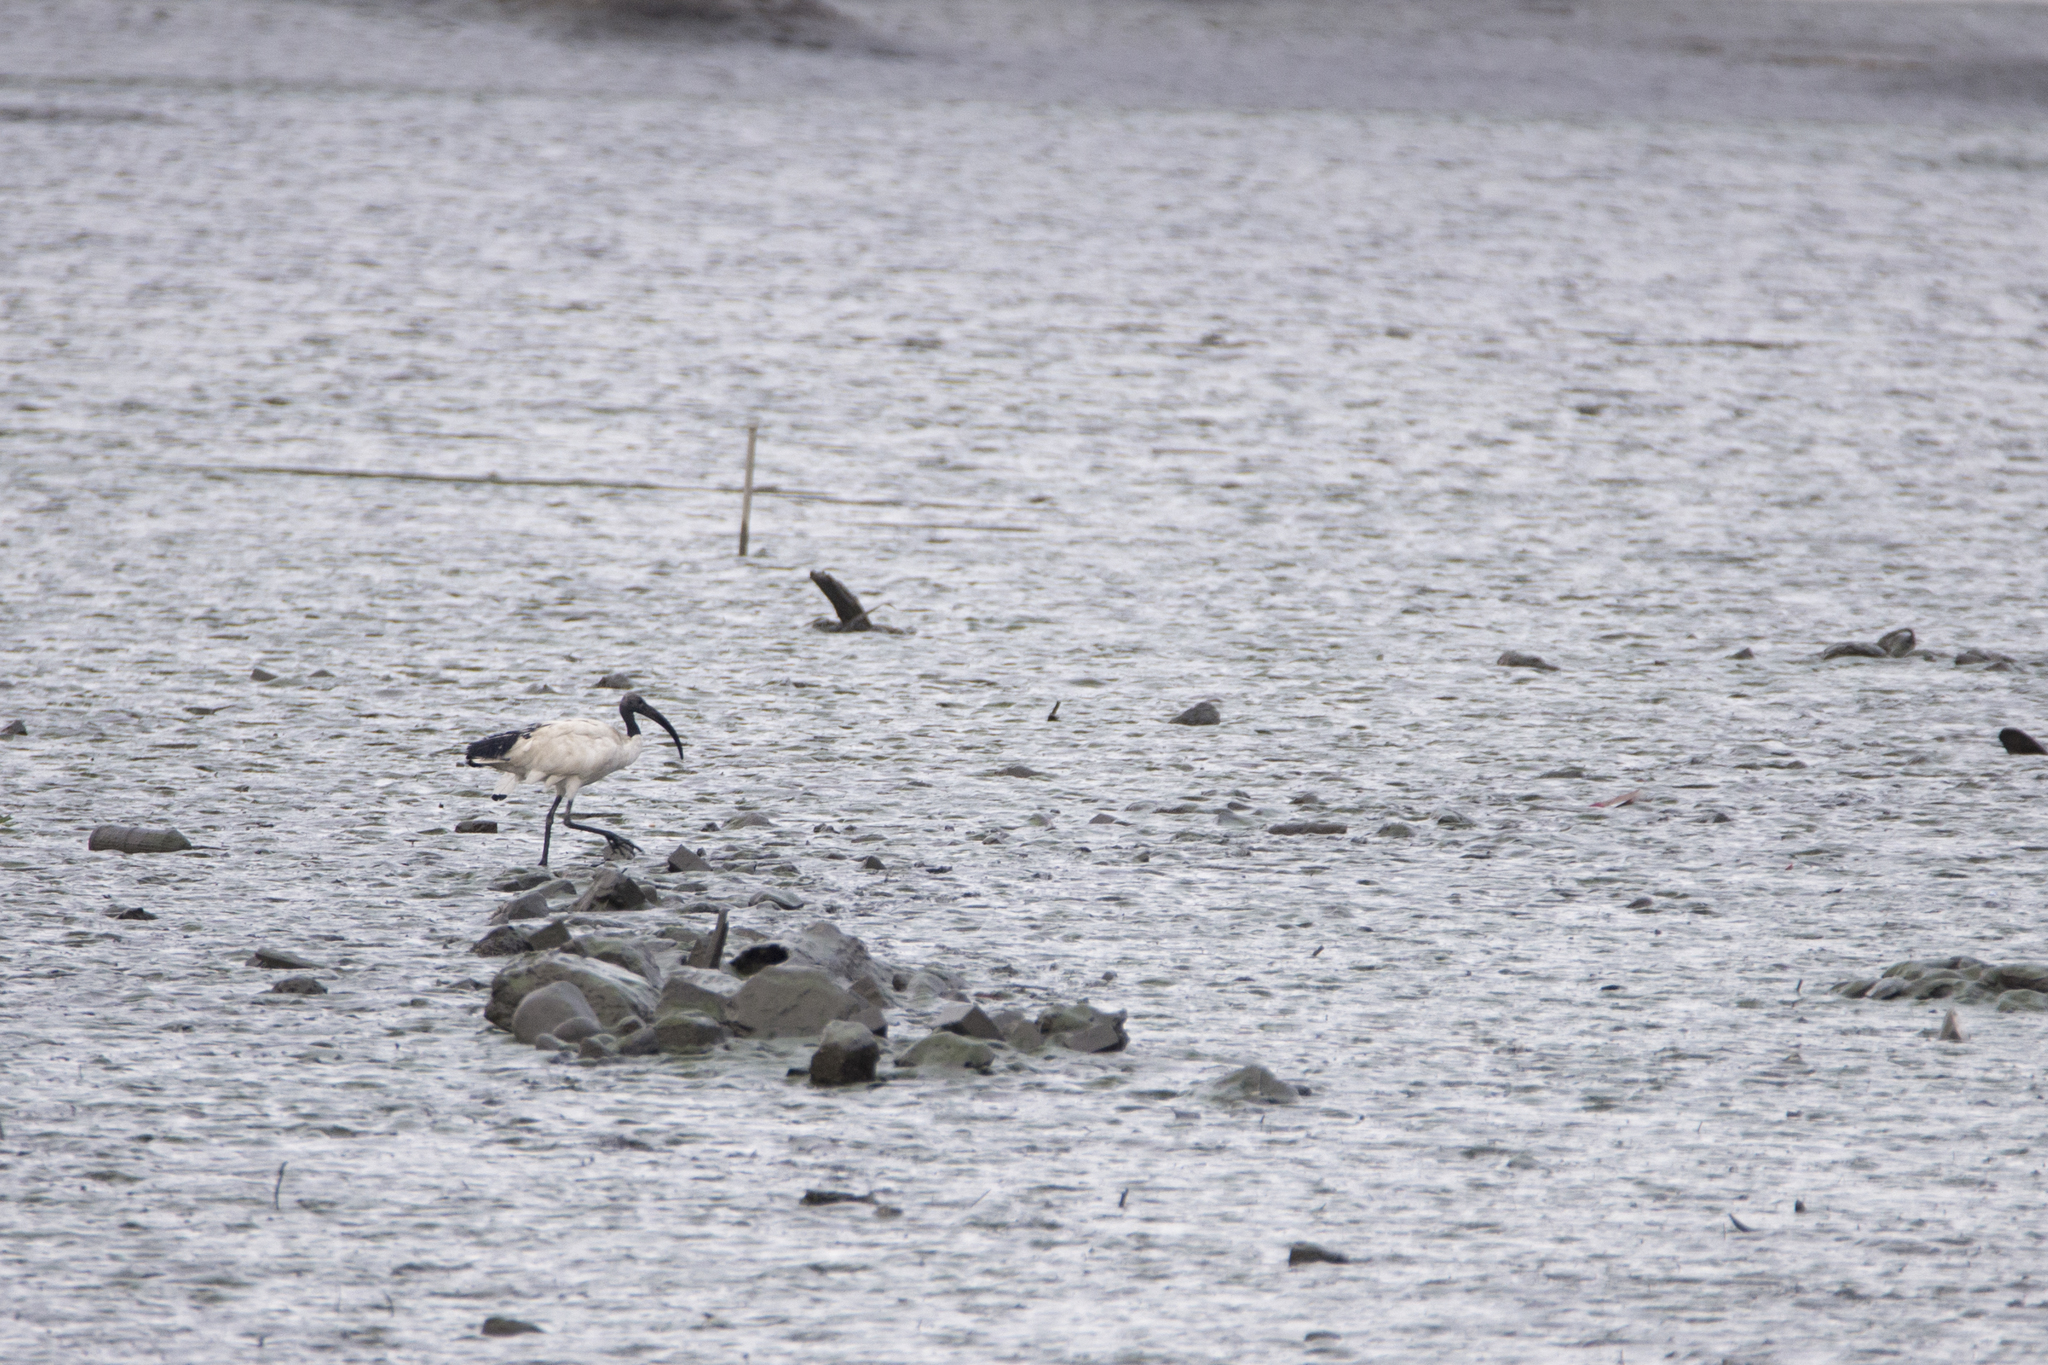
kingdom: Animalia
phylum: Chordata
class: Aves
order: Pelecaniformes
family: Threskiornithidae
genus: Threskiornis
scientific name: Threskiornis aethiopicus
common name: Sacred ibis
